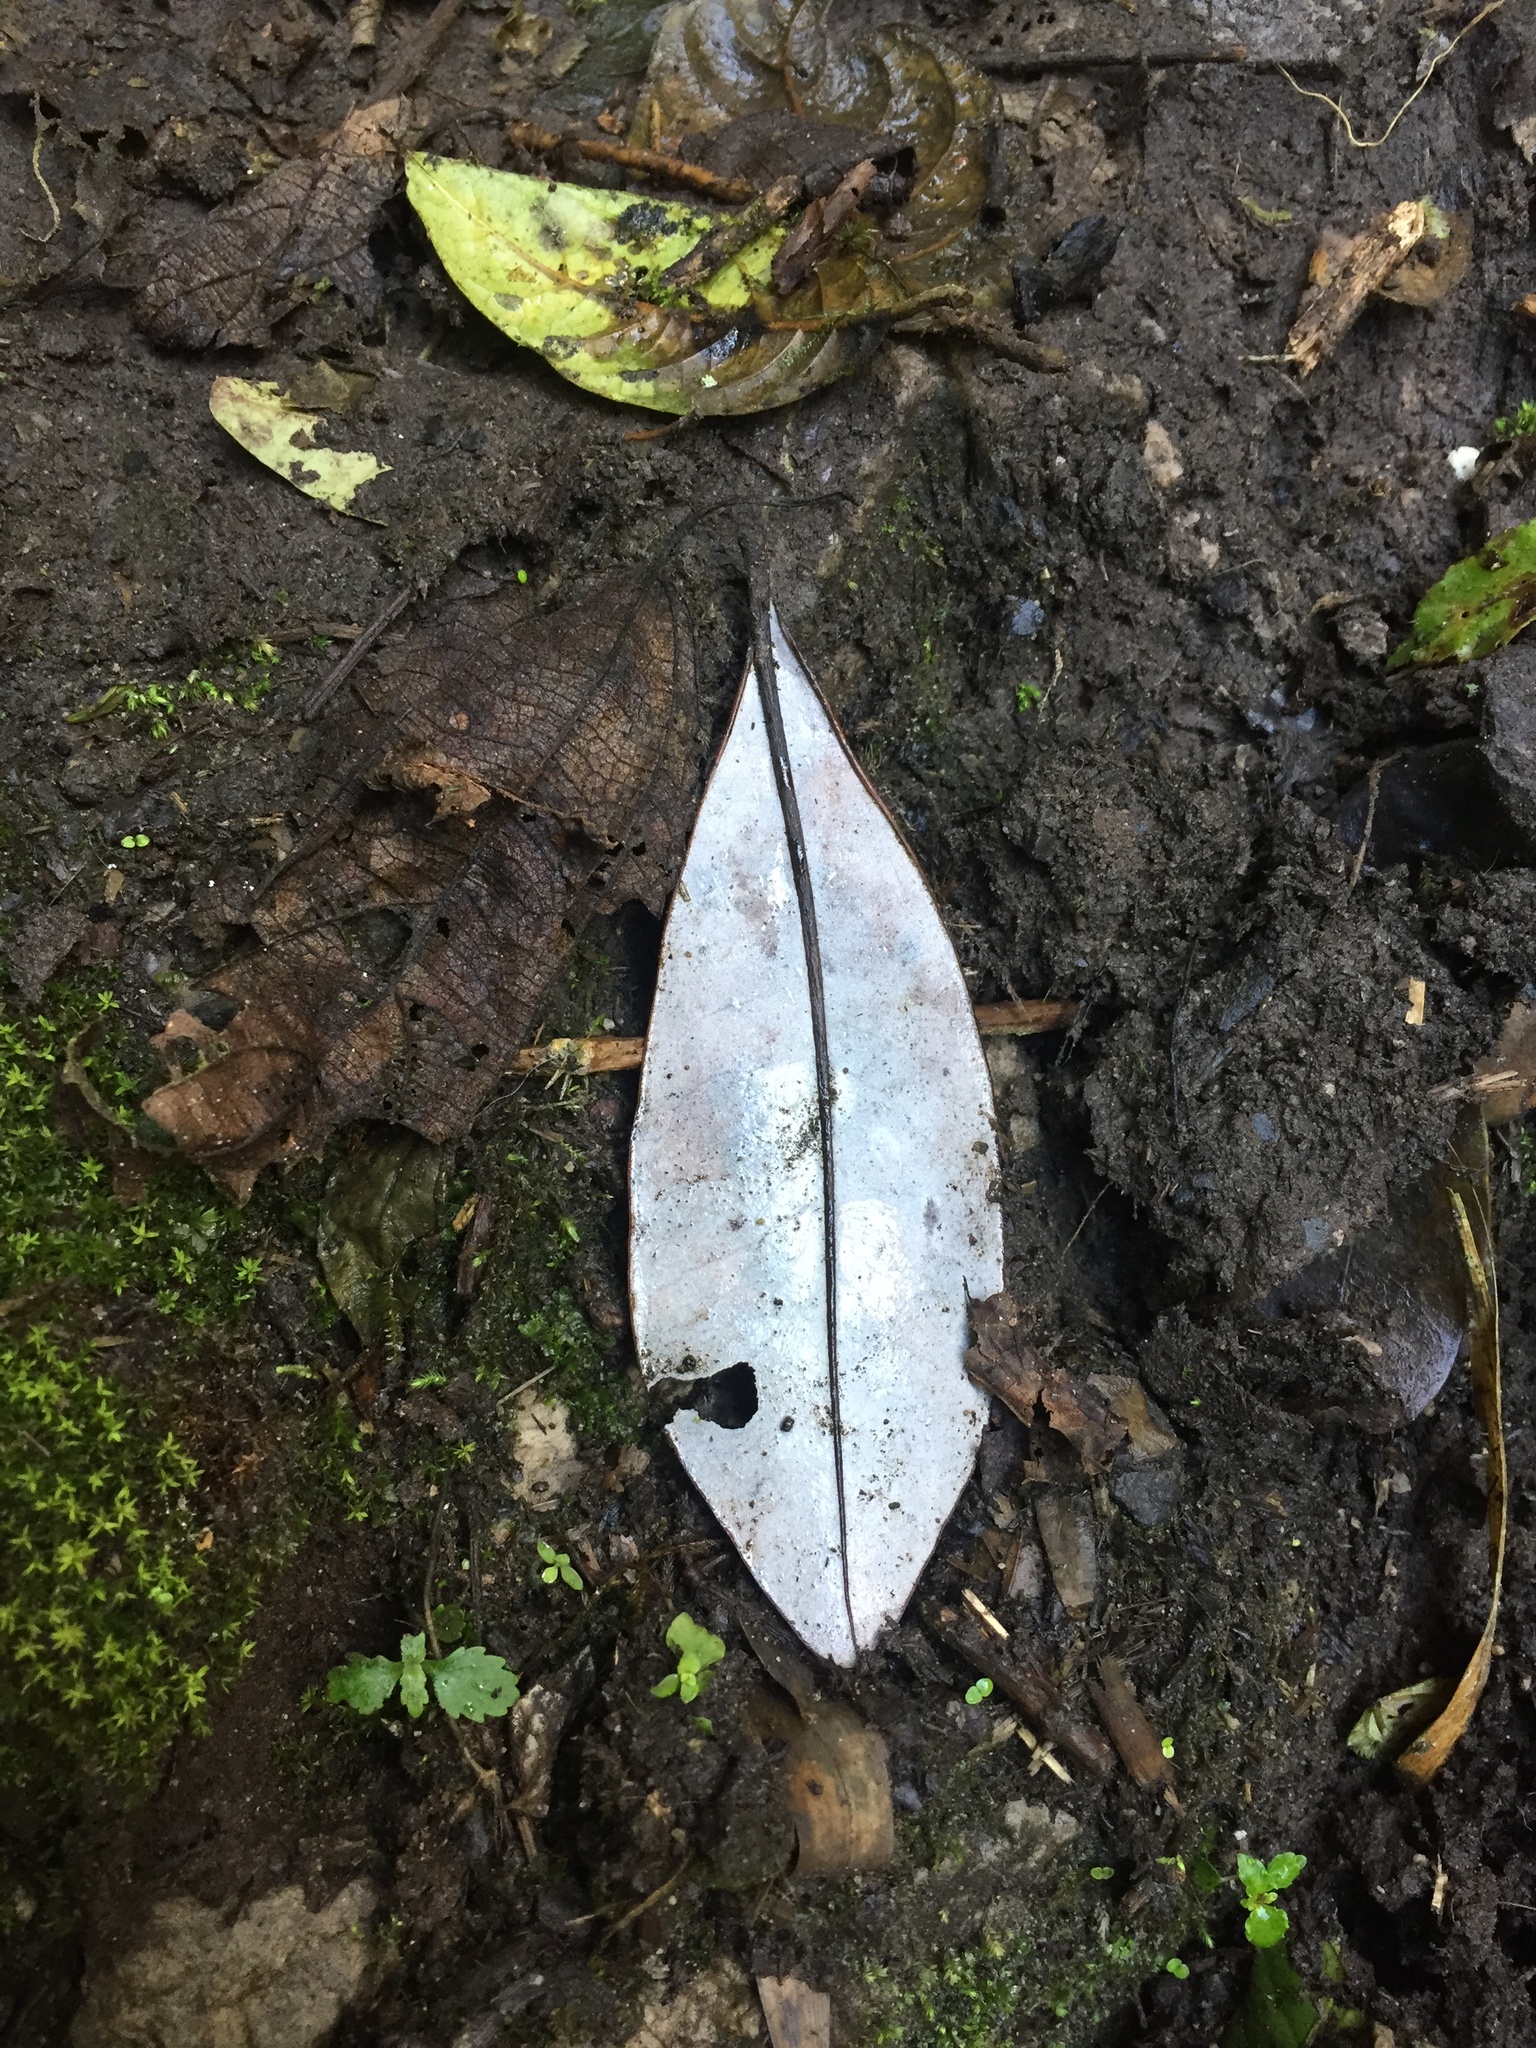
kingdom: Plantae
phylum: Tracheophyta
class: Magnoliopsida
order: Canellales
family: Winteraceae
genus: Drimys
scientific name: Drimys granadensis
